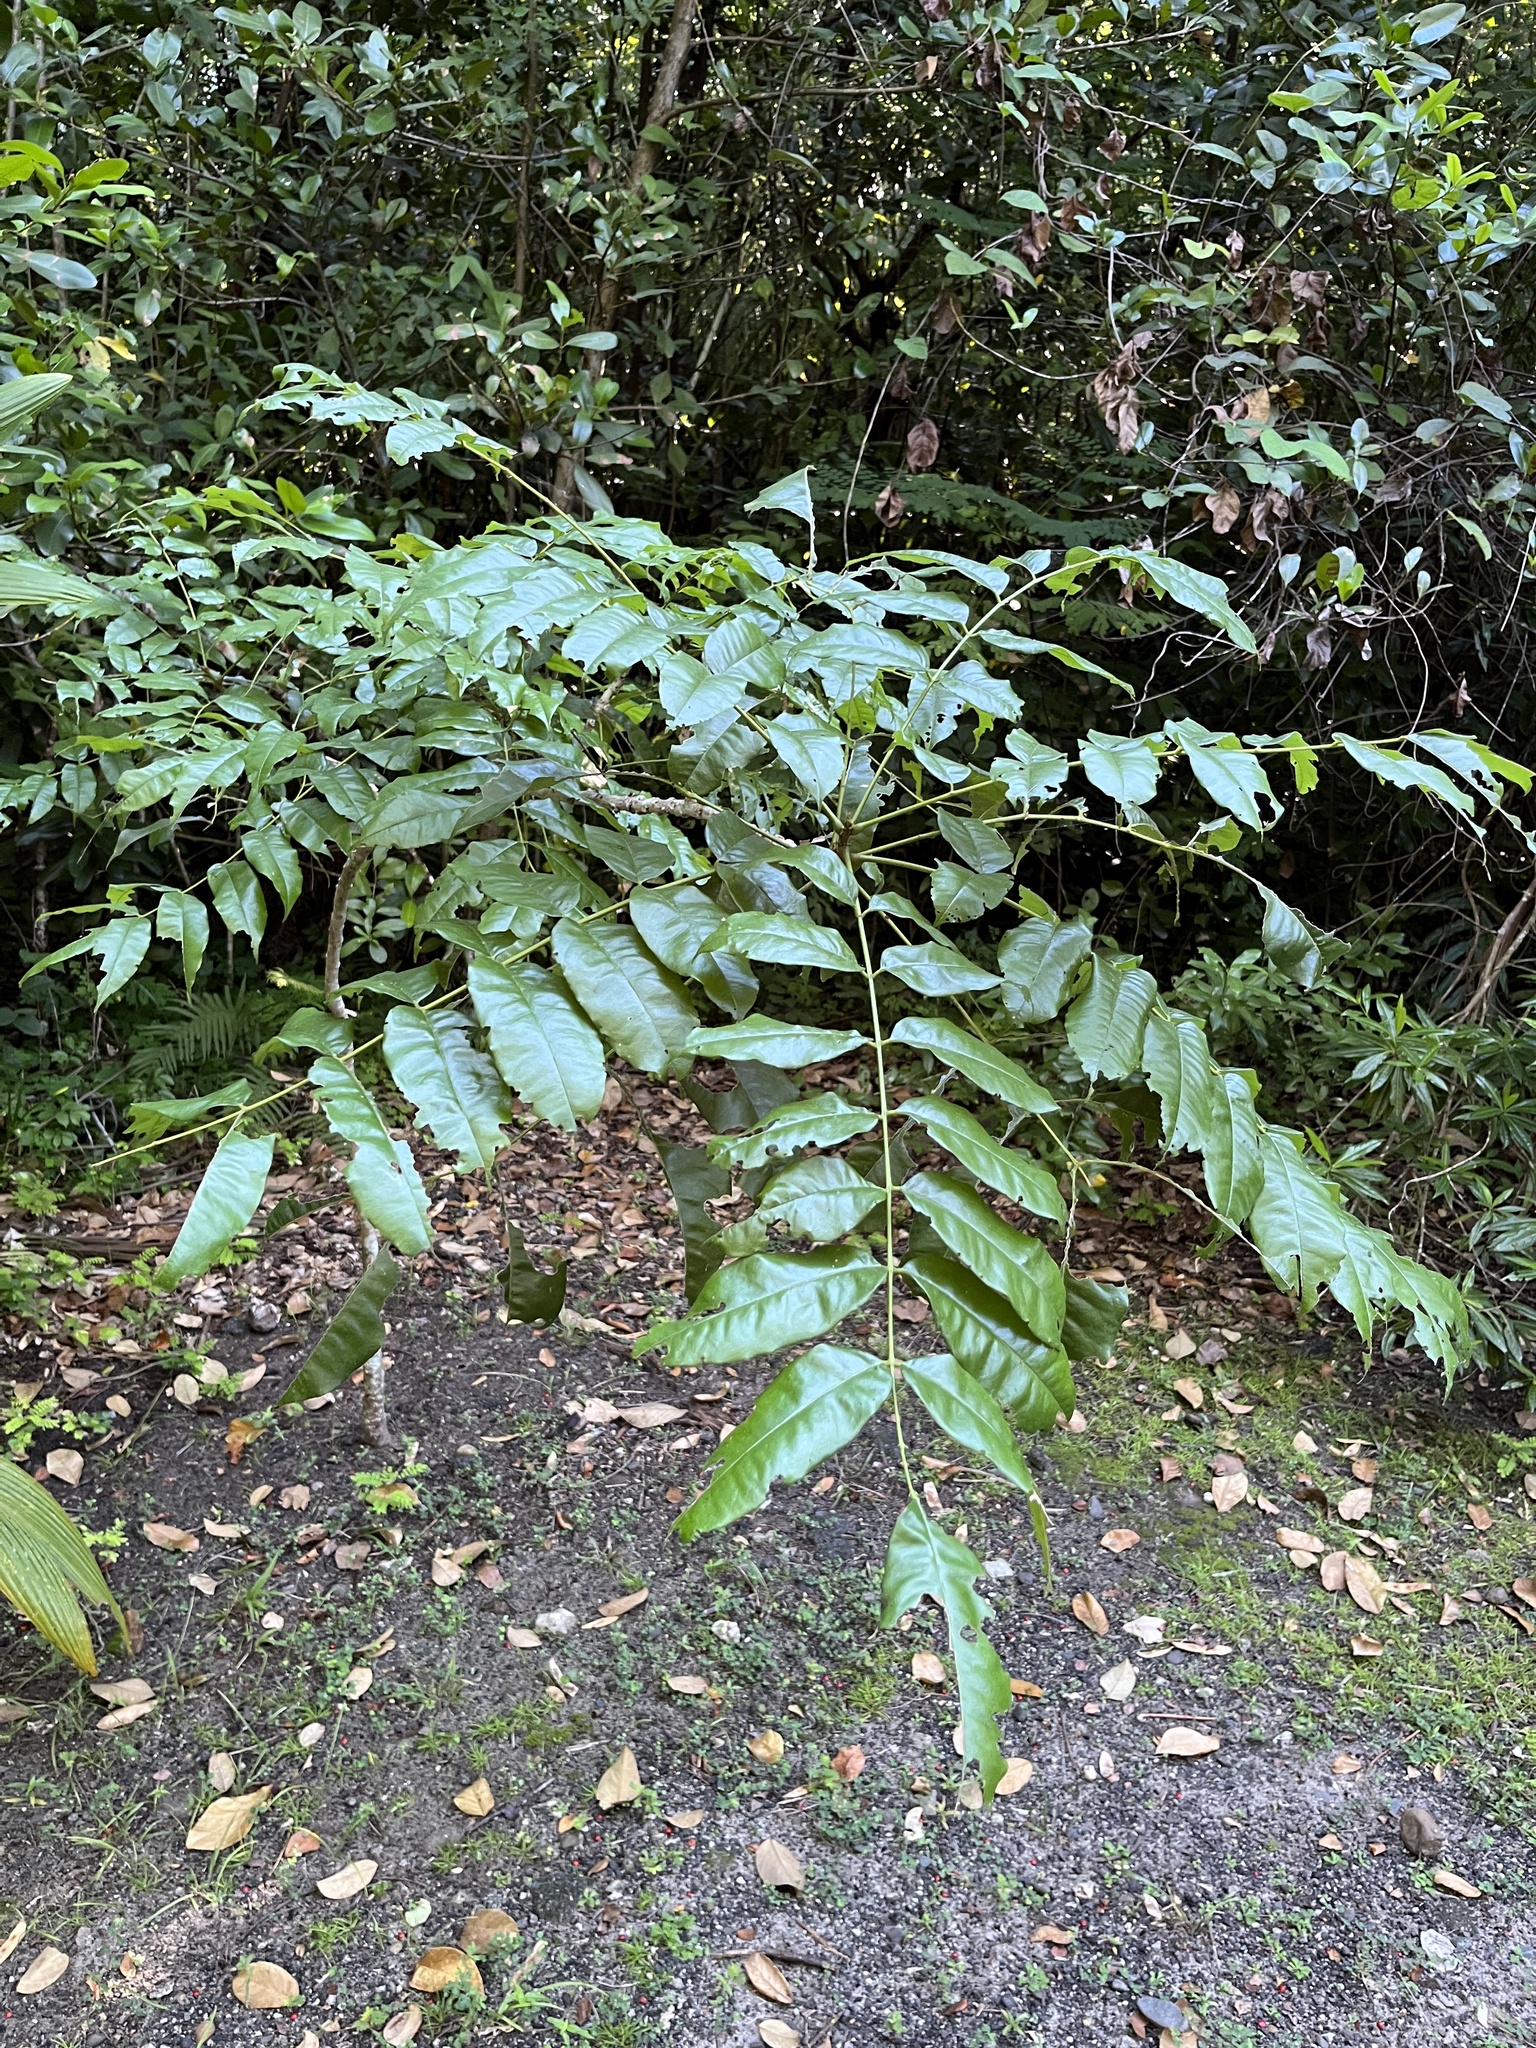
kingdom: Plantae
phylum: Tracheophyta
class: Magnoliopsida
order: Fabales
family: Fabaceae
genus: Andira
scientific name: Andira inermis
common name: Angelin
